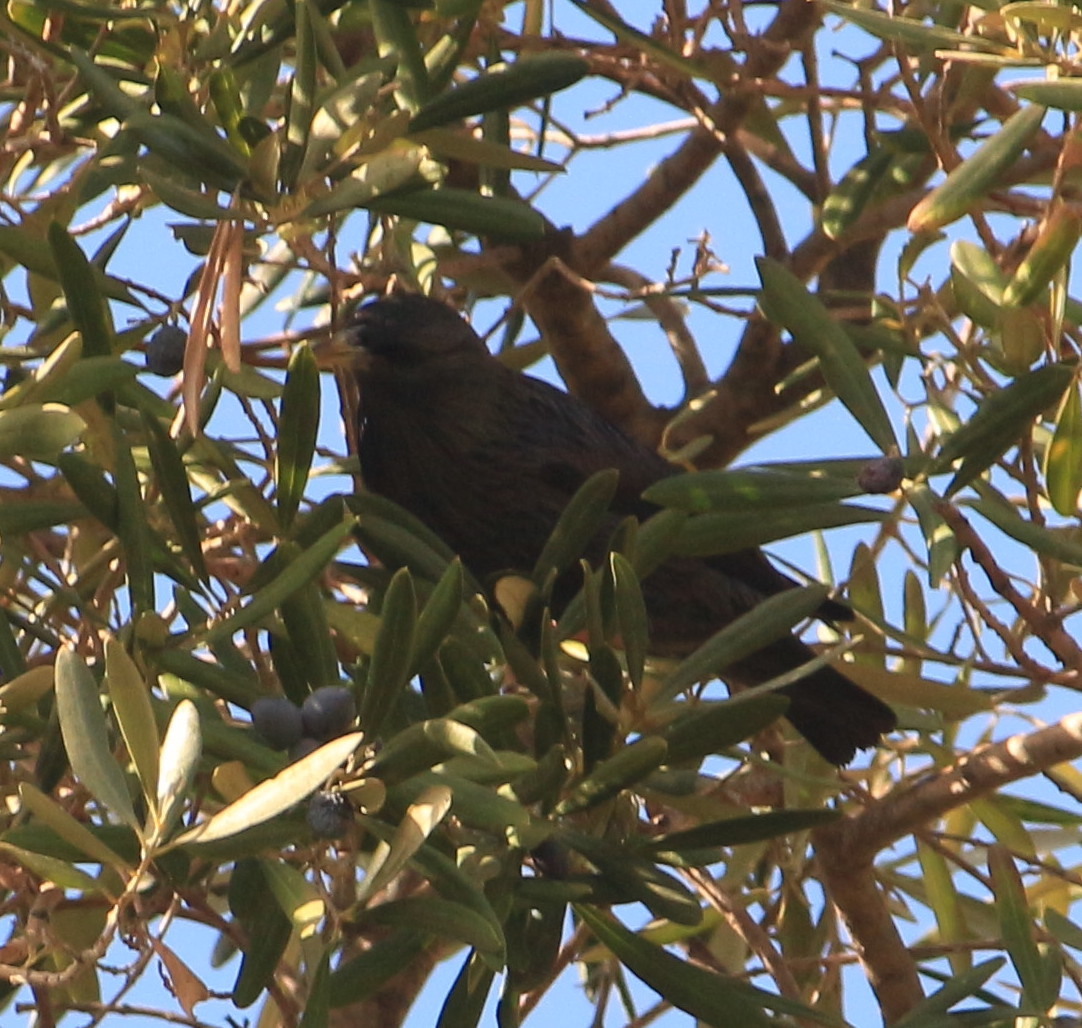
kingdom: Animalia
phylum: Chordata
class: Aves
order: Passeriformes
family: Sturnidae
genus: Sturnus
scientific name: Sturnus unicolor
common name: Spotless starling
